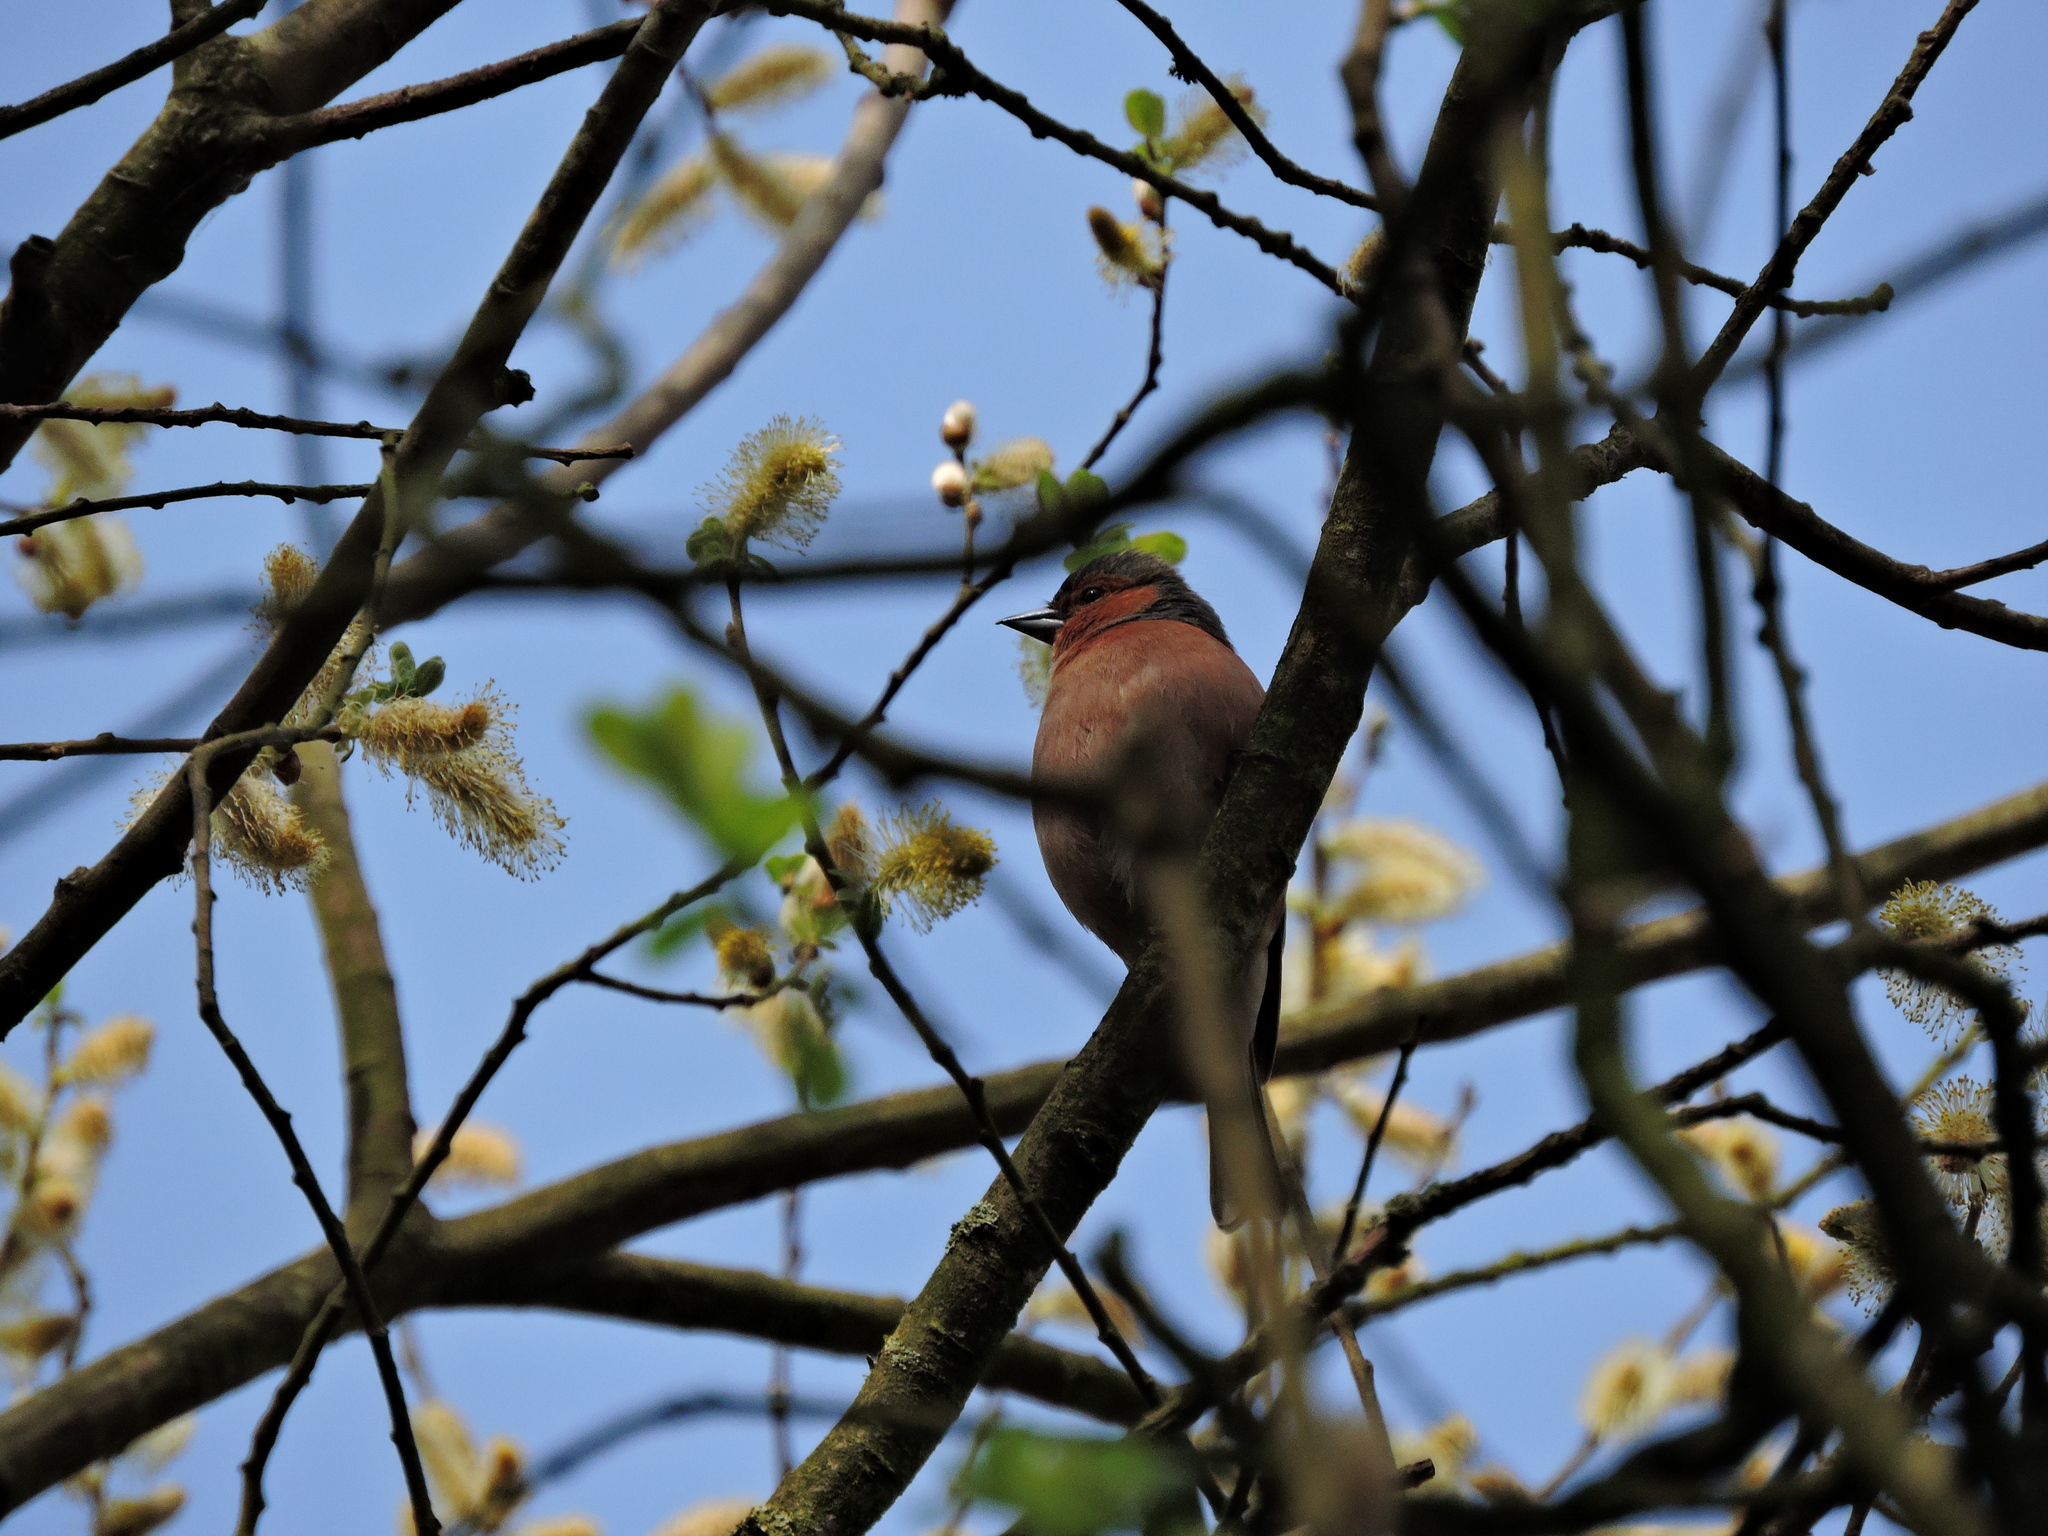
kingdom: Animalia
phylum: Chordata
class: Aves
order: Passeriformes
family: Fringillidae
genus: Fringilla
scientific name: Fringilla coelebs
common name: Common chaffinch
